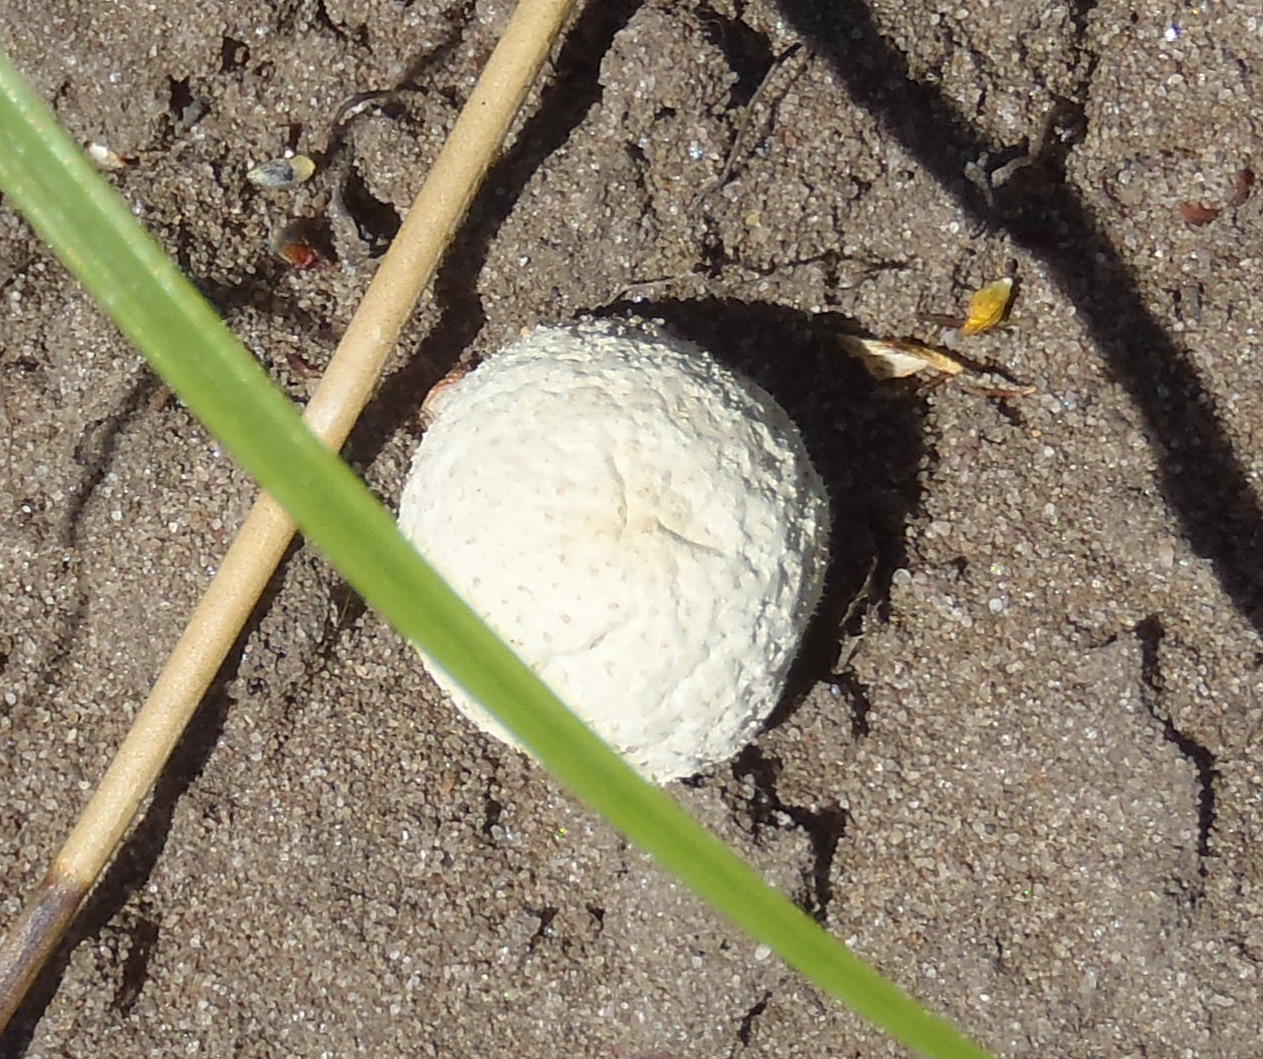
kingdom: Fungi
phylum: Basidiomycota
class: Agaricomycetes
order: Agaricales
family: Lycoperdaceae
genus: Lycoperdon
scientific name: Lycoperdon pratense
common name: Meadow puffball
